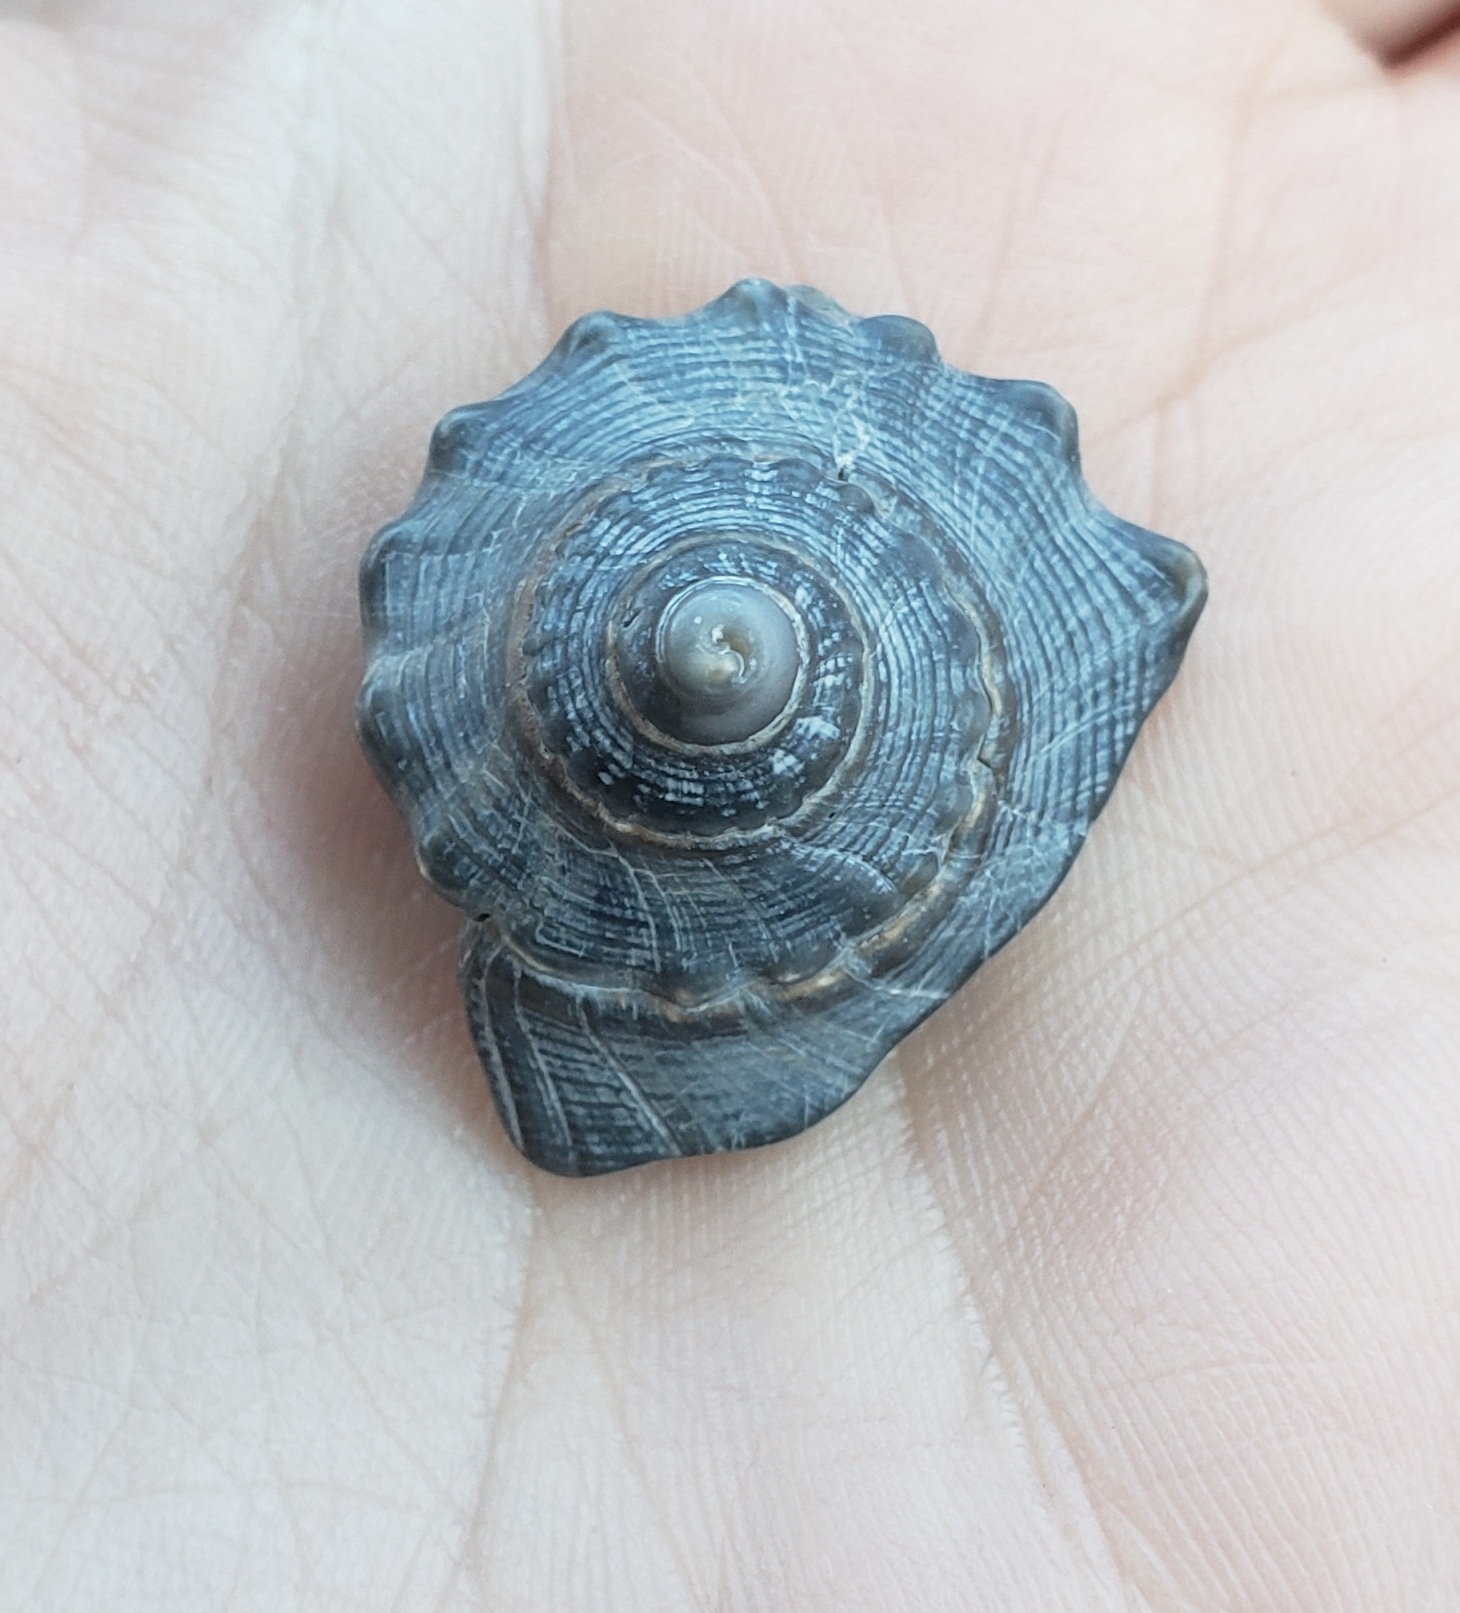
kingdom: Animalia
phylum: Mollusca
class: Gastropoda
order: Neogastropoda
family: Busyconidae
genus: Busycon
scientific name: Busycon carica
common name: Knobbed whelk
